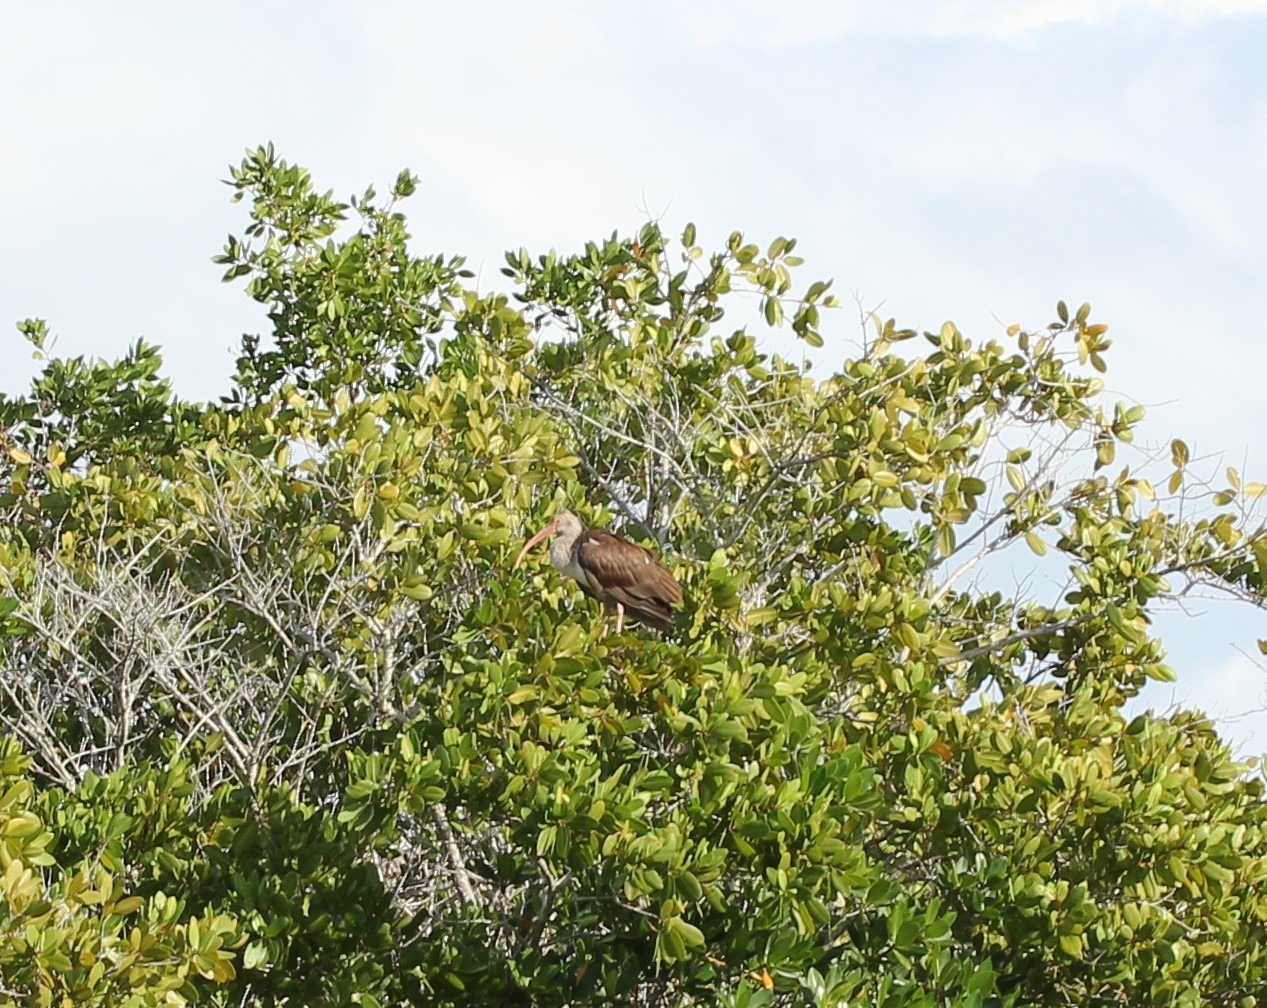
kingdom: Animalia
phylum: Chordata
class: Aves
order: Pelecaniformes
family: Threskiornithidae
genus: Eudocimus
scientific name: Eudocimus albus
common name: White ibis
